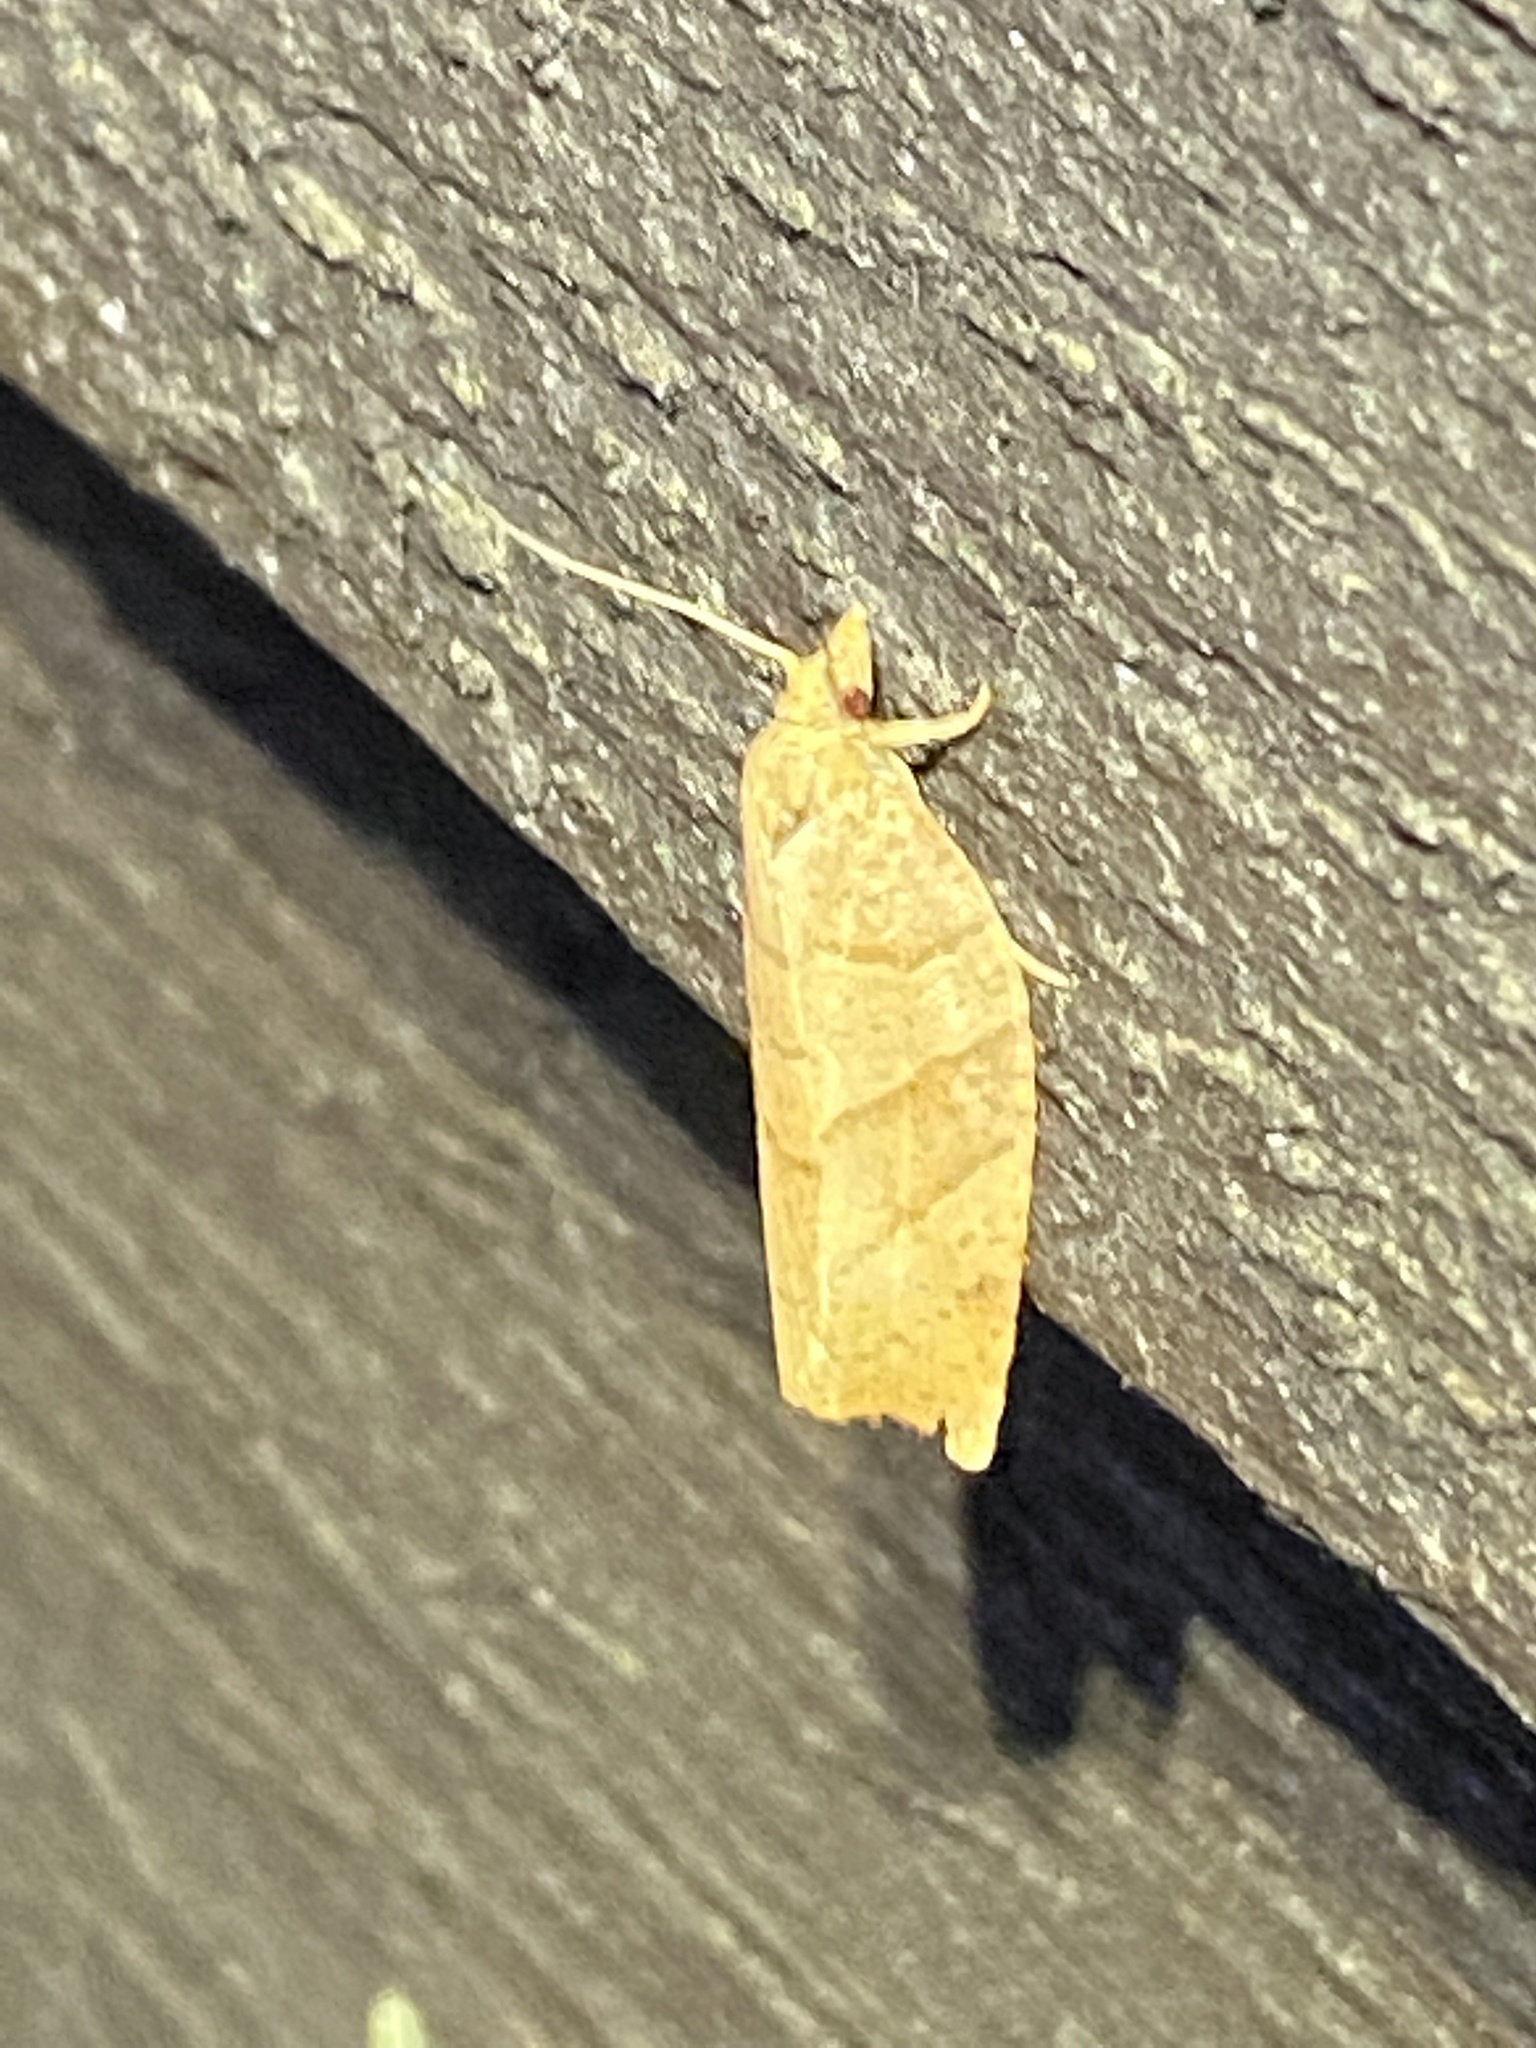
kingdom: Animalia
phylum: Arthropoda
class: Insecta
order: Lepidoptera
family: Tortricidae
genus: Pandemis
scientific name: Pandemis lamprosana
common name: Woodgrain leafroller moth
